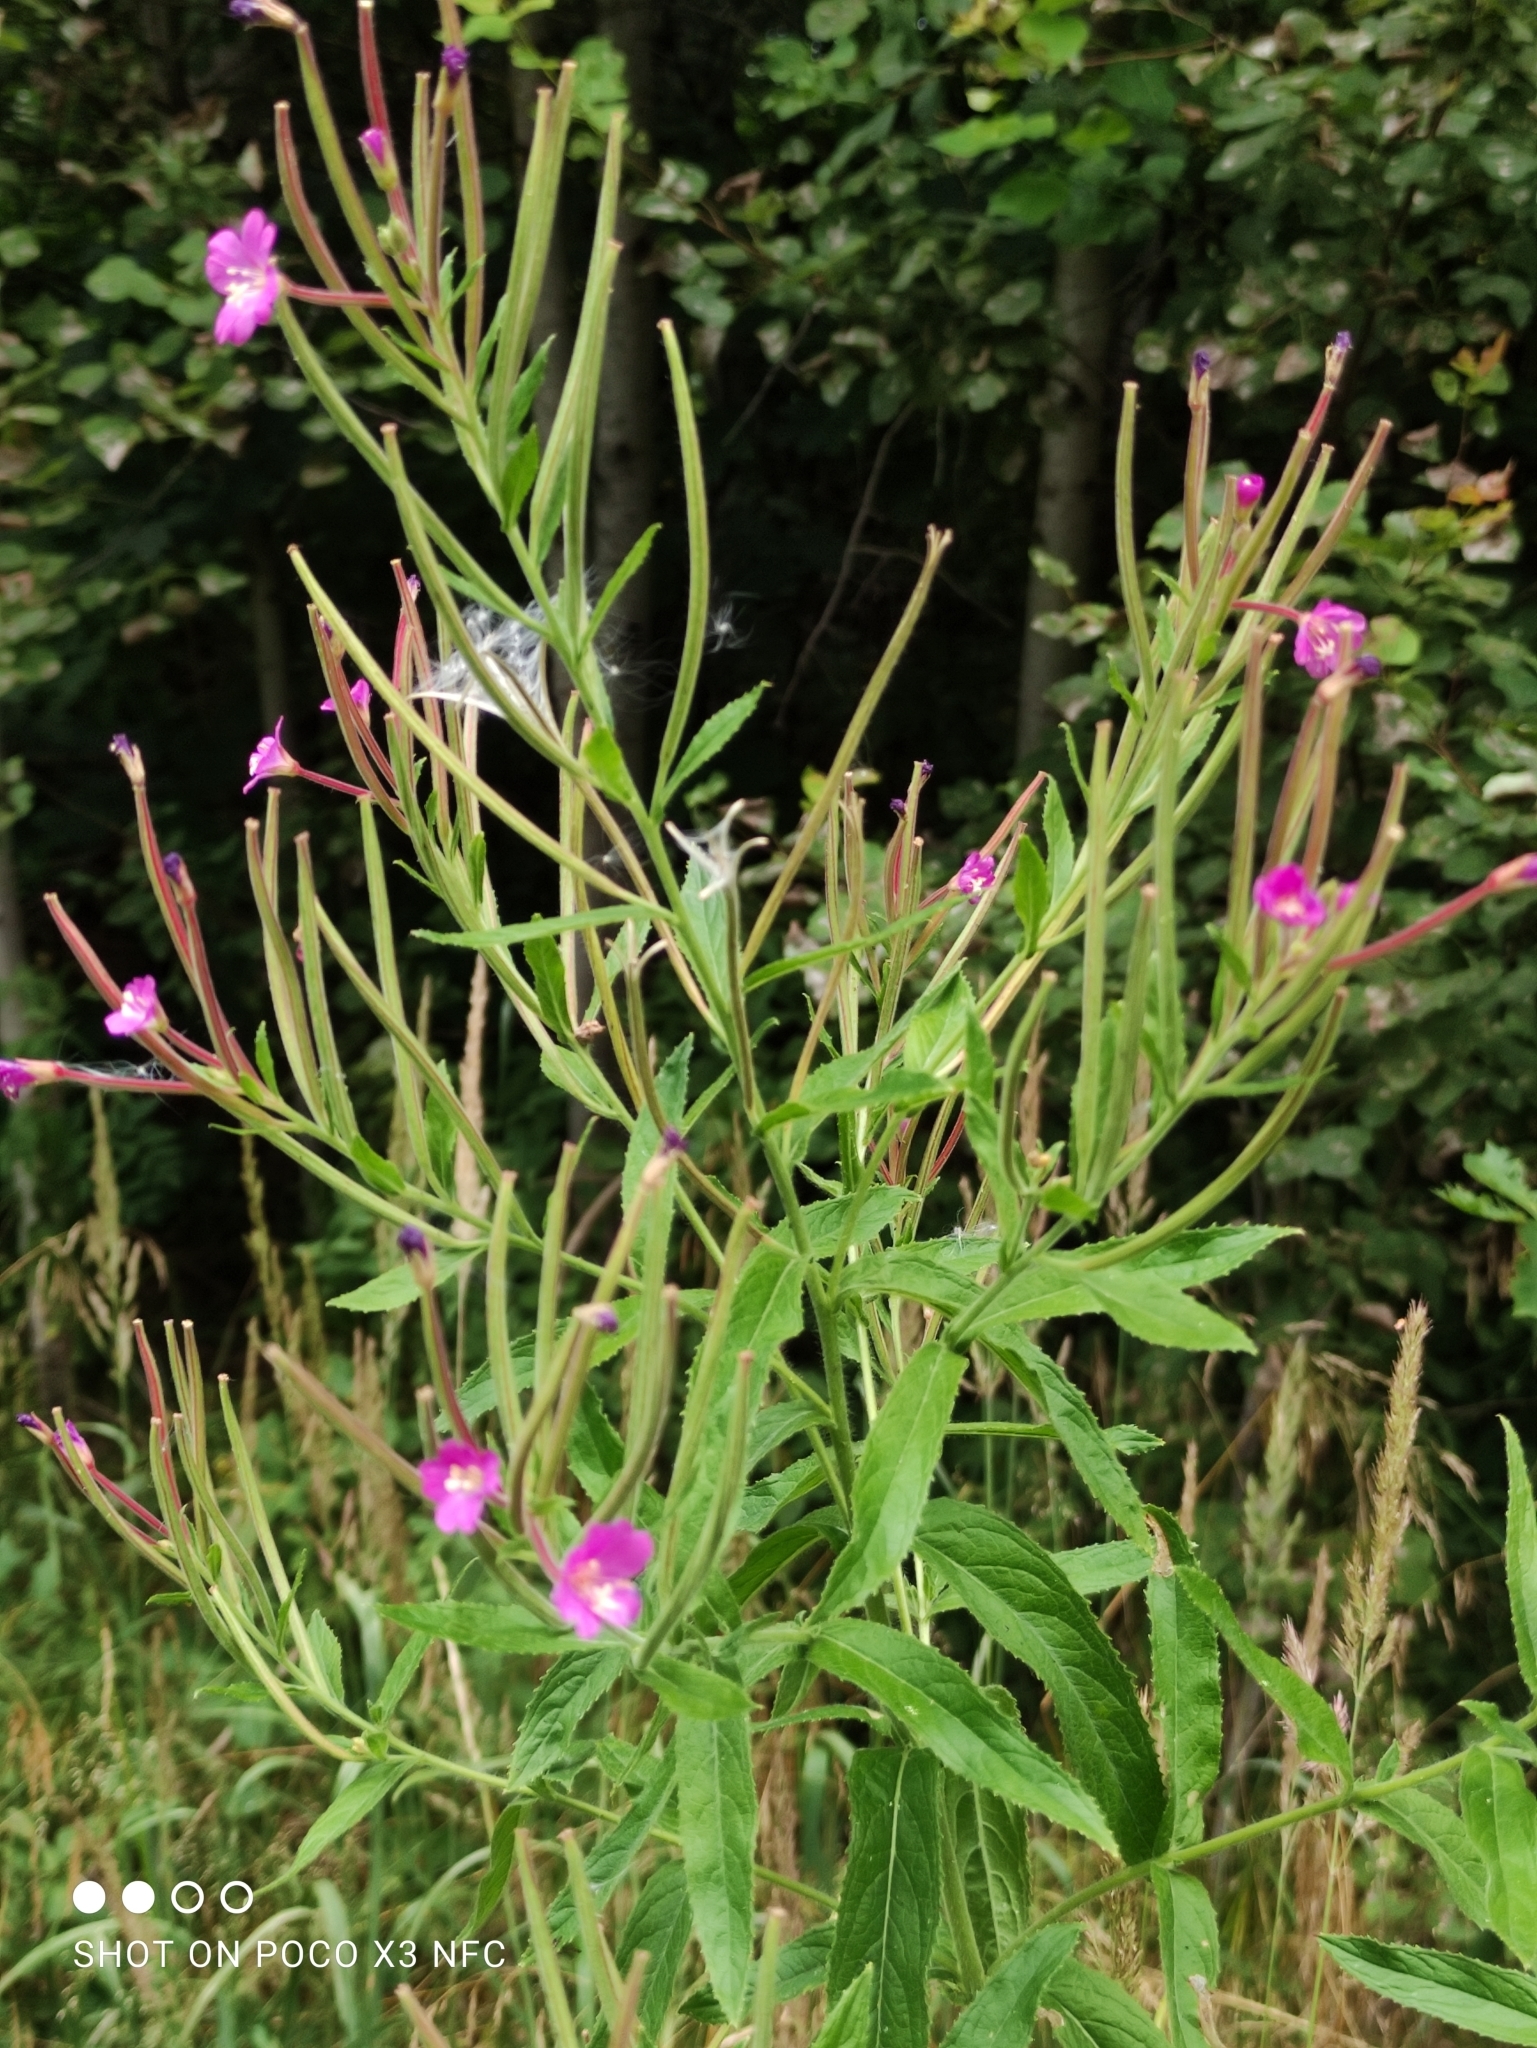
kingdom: Plantae
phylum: Tracheophyta
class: Magnoliopsida
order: Myrtales
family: Onagraceae
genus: Epilobium
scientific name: Epilobium hirsutum
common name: Great willowherb
